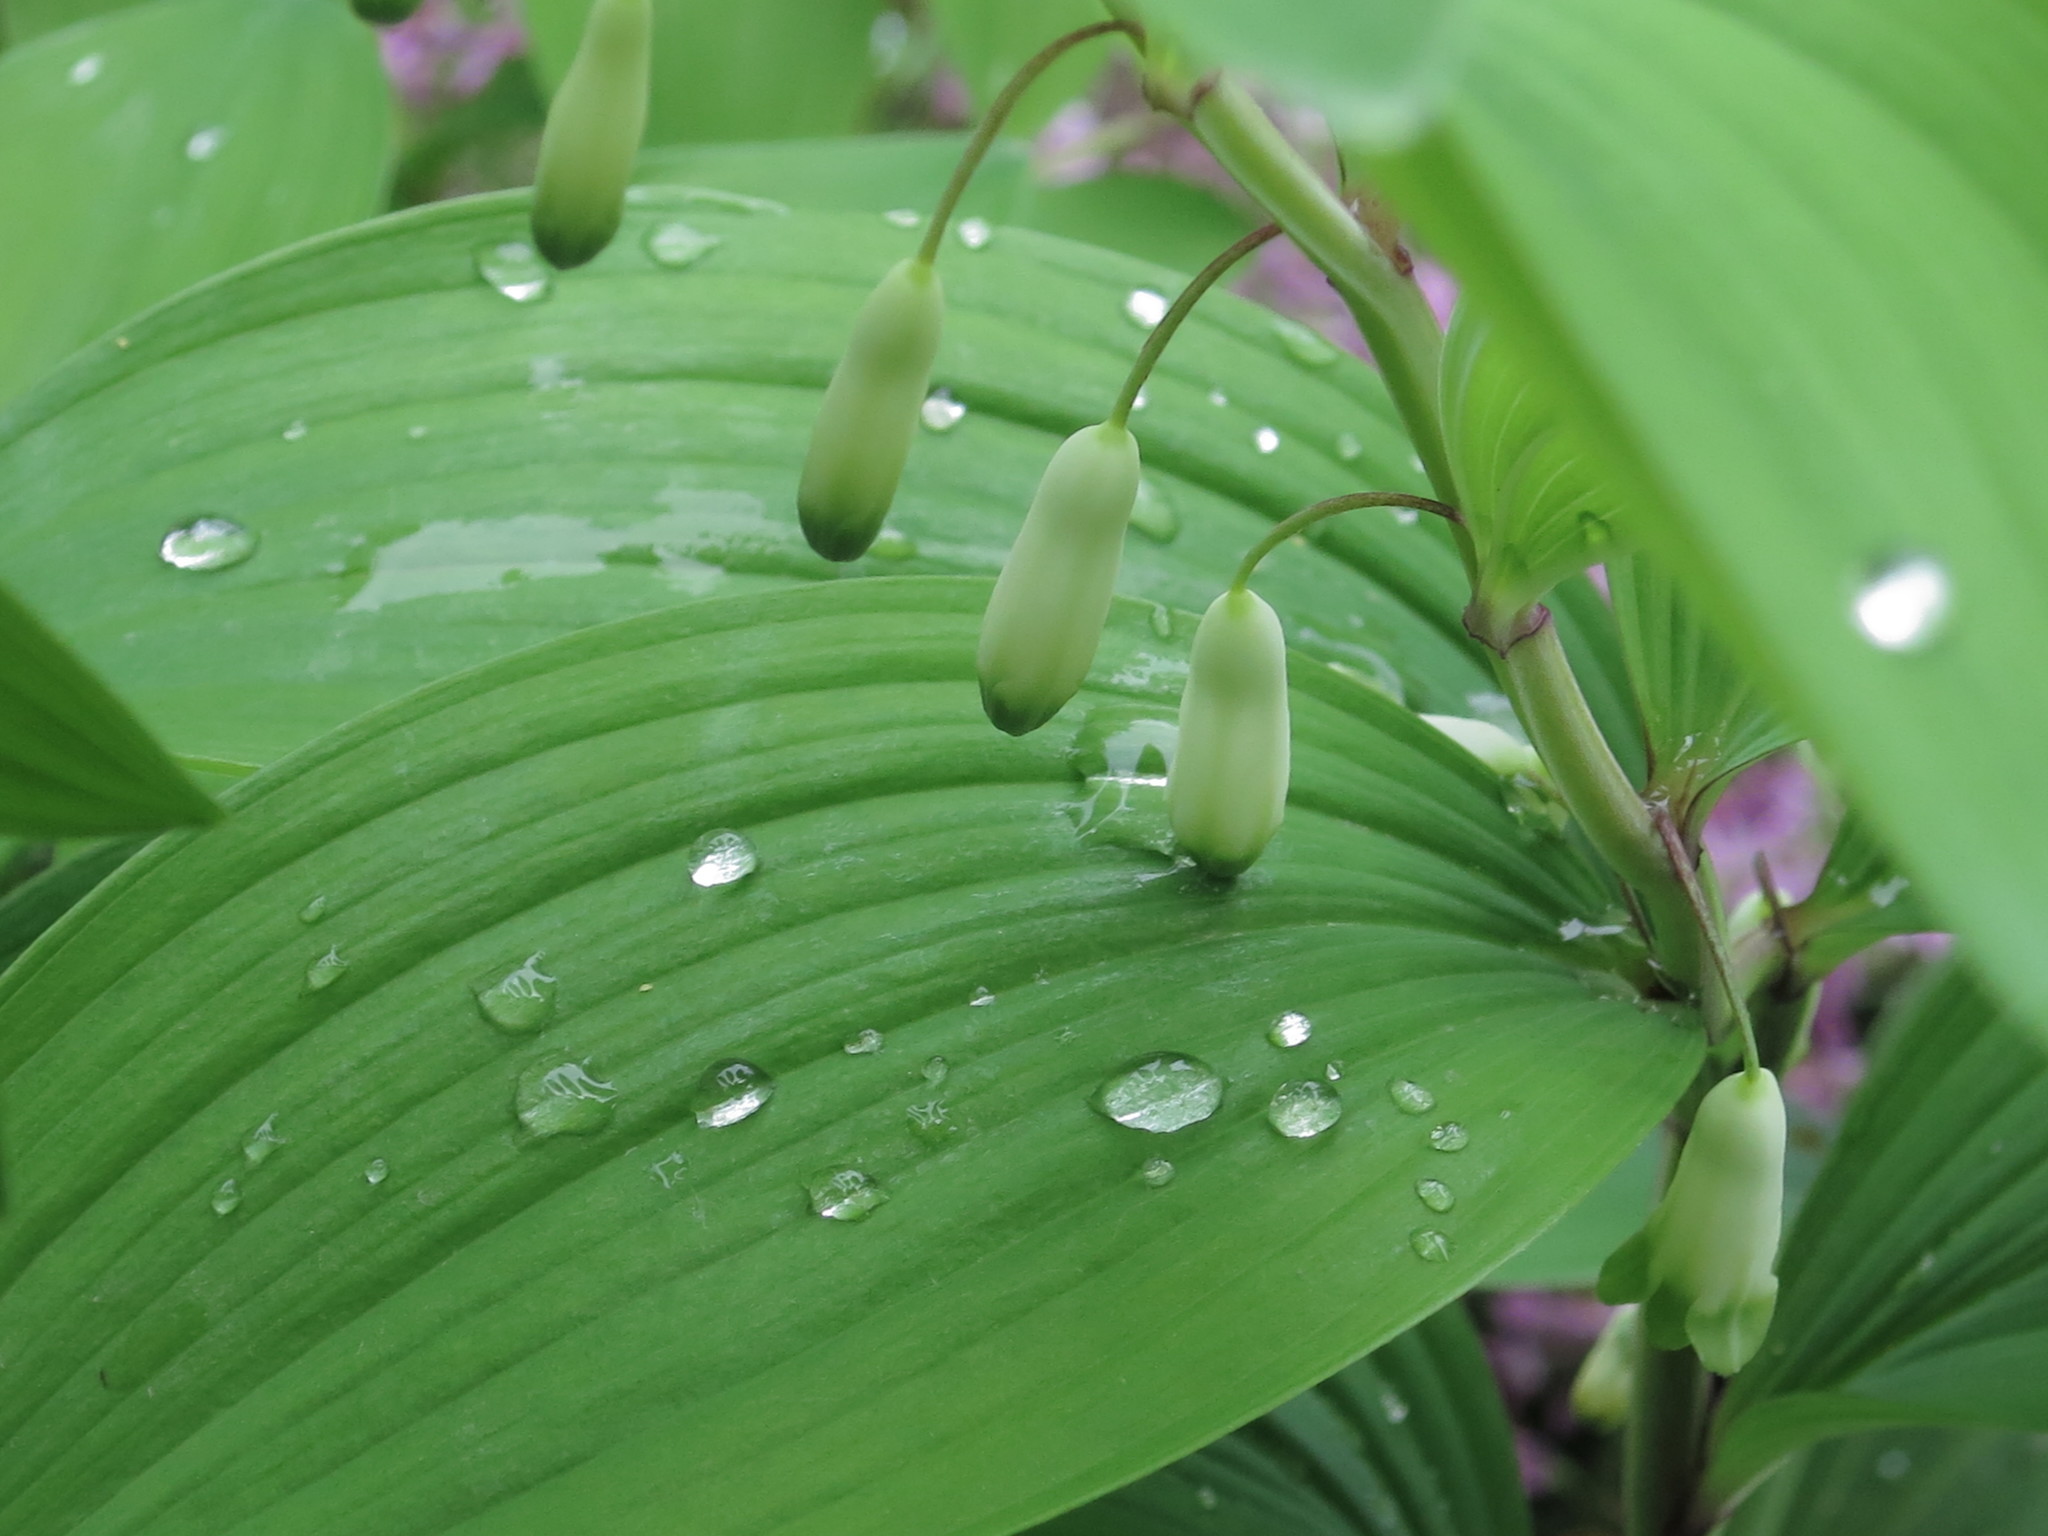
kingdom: Plantae
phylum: Tracheophyta
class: Liliopsida
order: Asparagales
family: Asparagaceae
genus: Polygonatum
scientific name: Polygonatum odoratum
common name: Angular solomon's-seal
